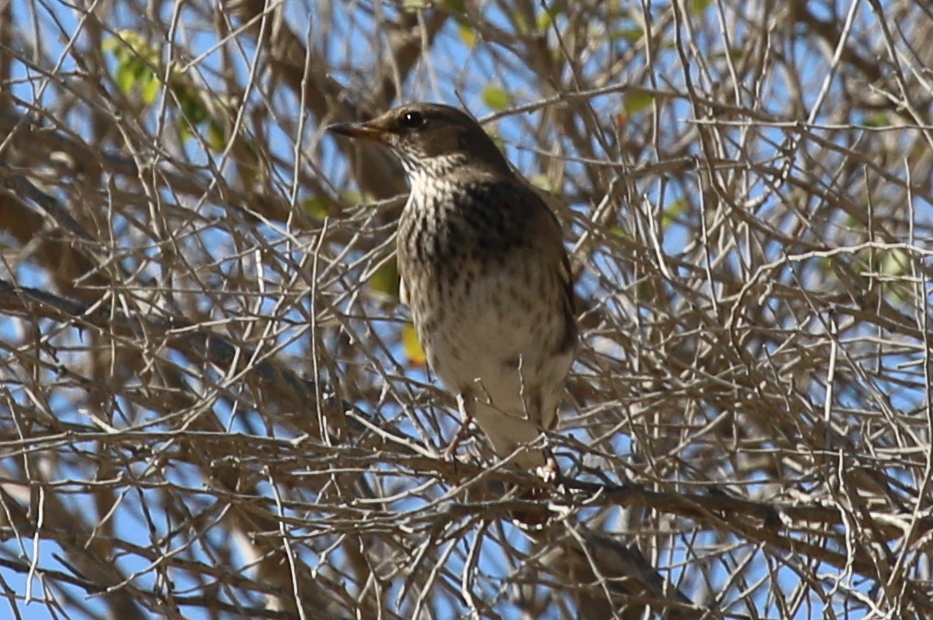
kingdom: Animalia
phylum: Chordata
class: Aves
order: Passeriformes
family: Turdidae
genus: Turdus
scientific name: Turdus atrogularis
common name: Black-throated thrush
